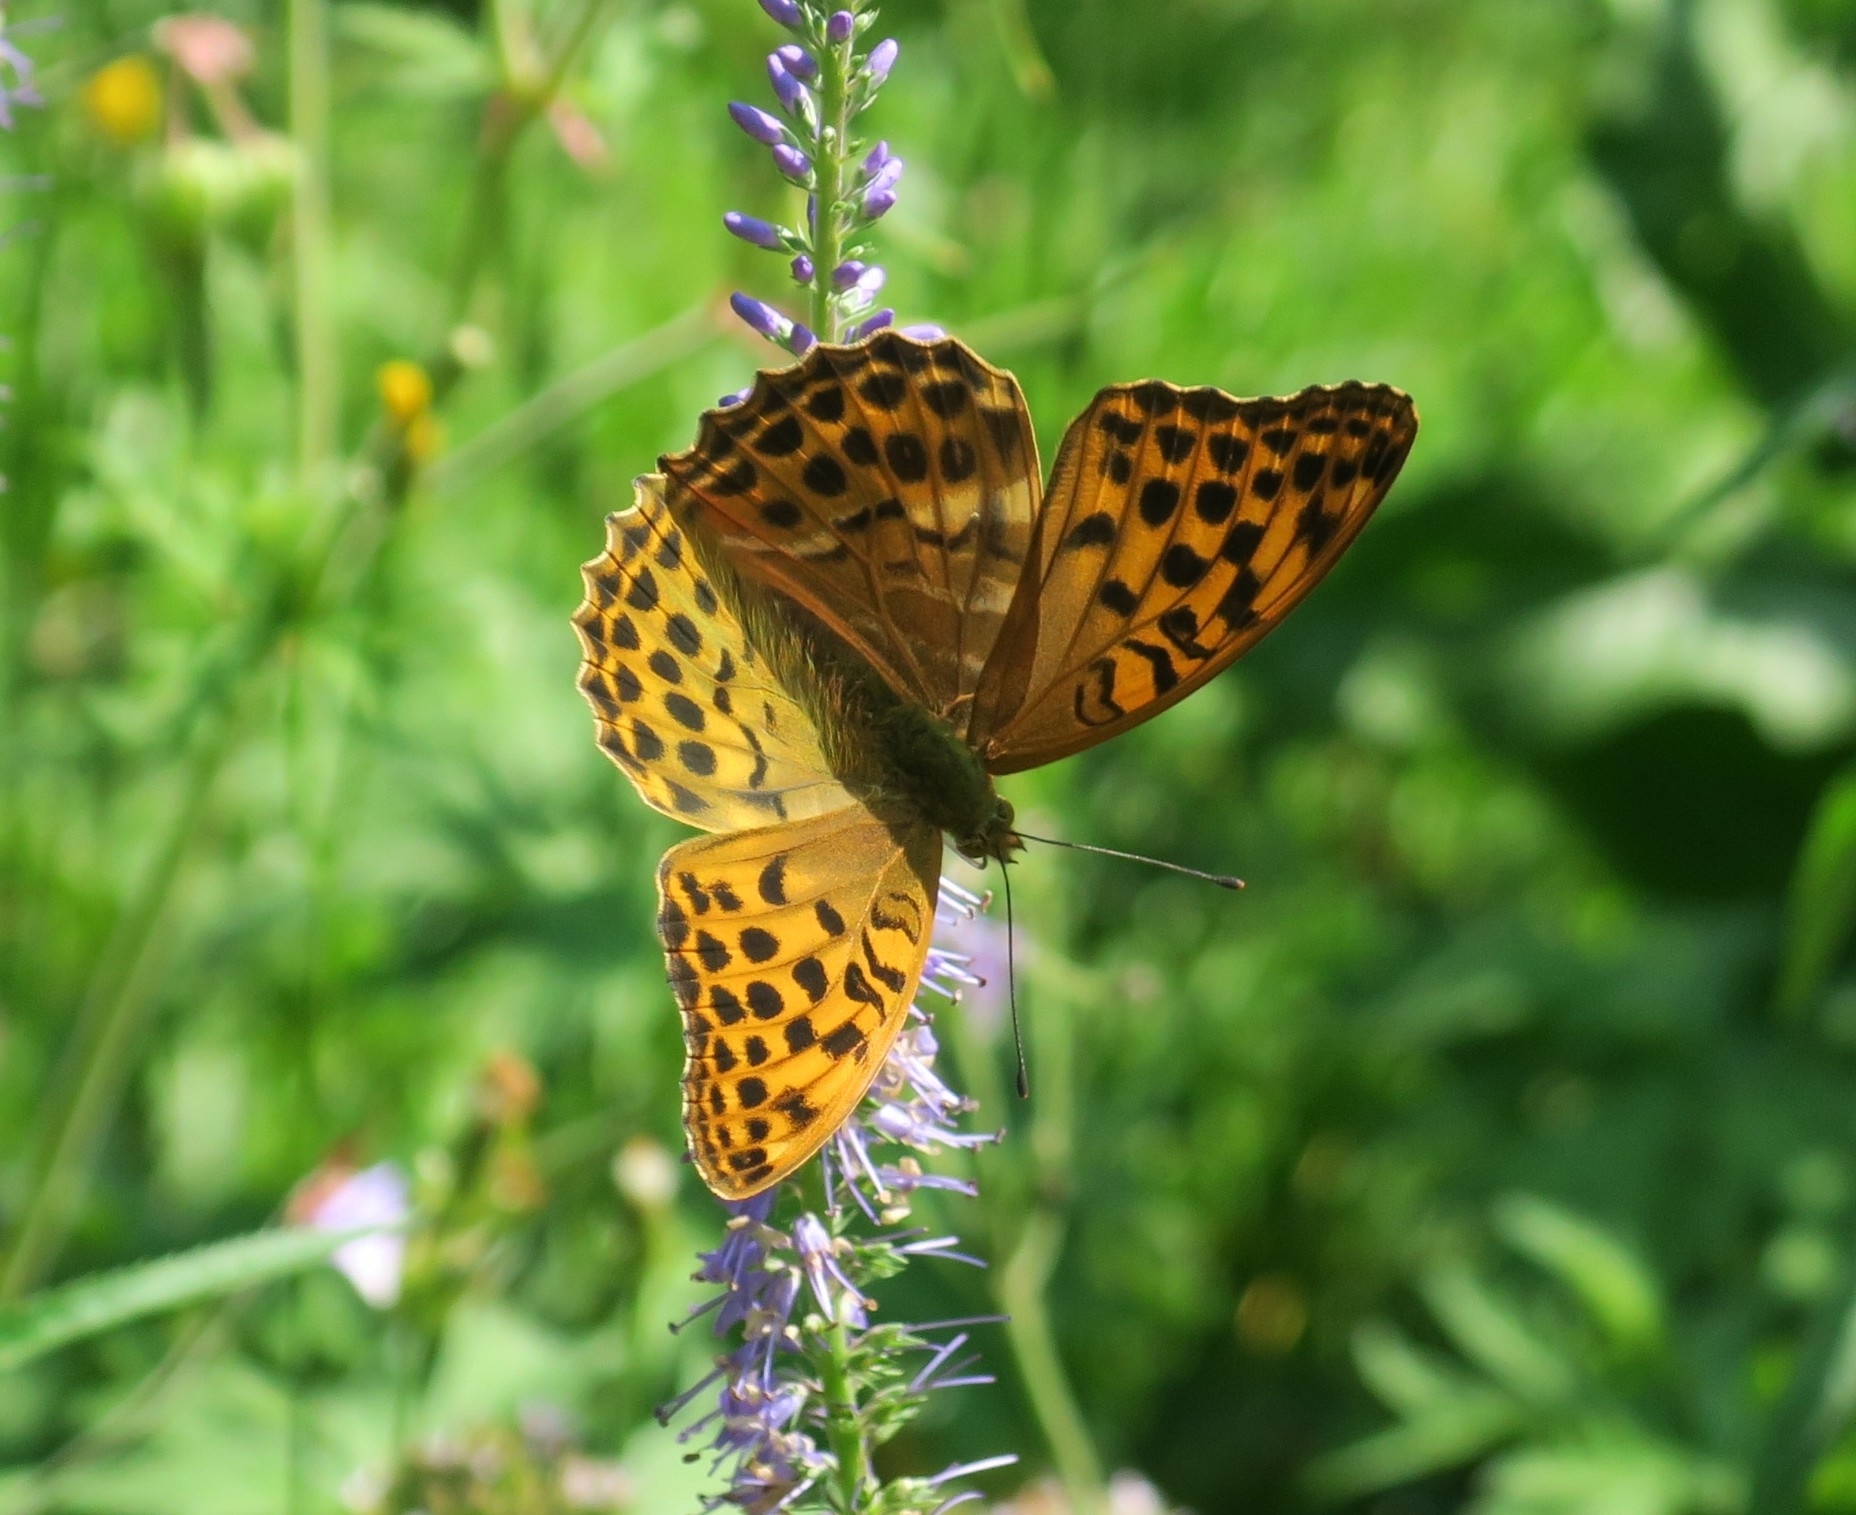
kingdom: Animalia
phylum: Arthropoda
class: Insecta
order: Lepidoptera
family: Nymphalidae
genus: Argynnis
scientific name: Argynnis paphia
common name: Silver-washed fritillary
